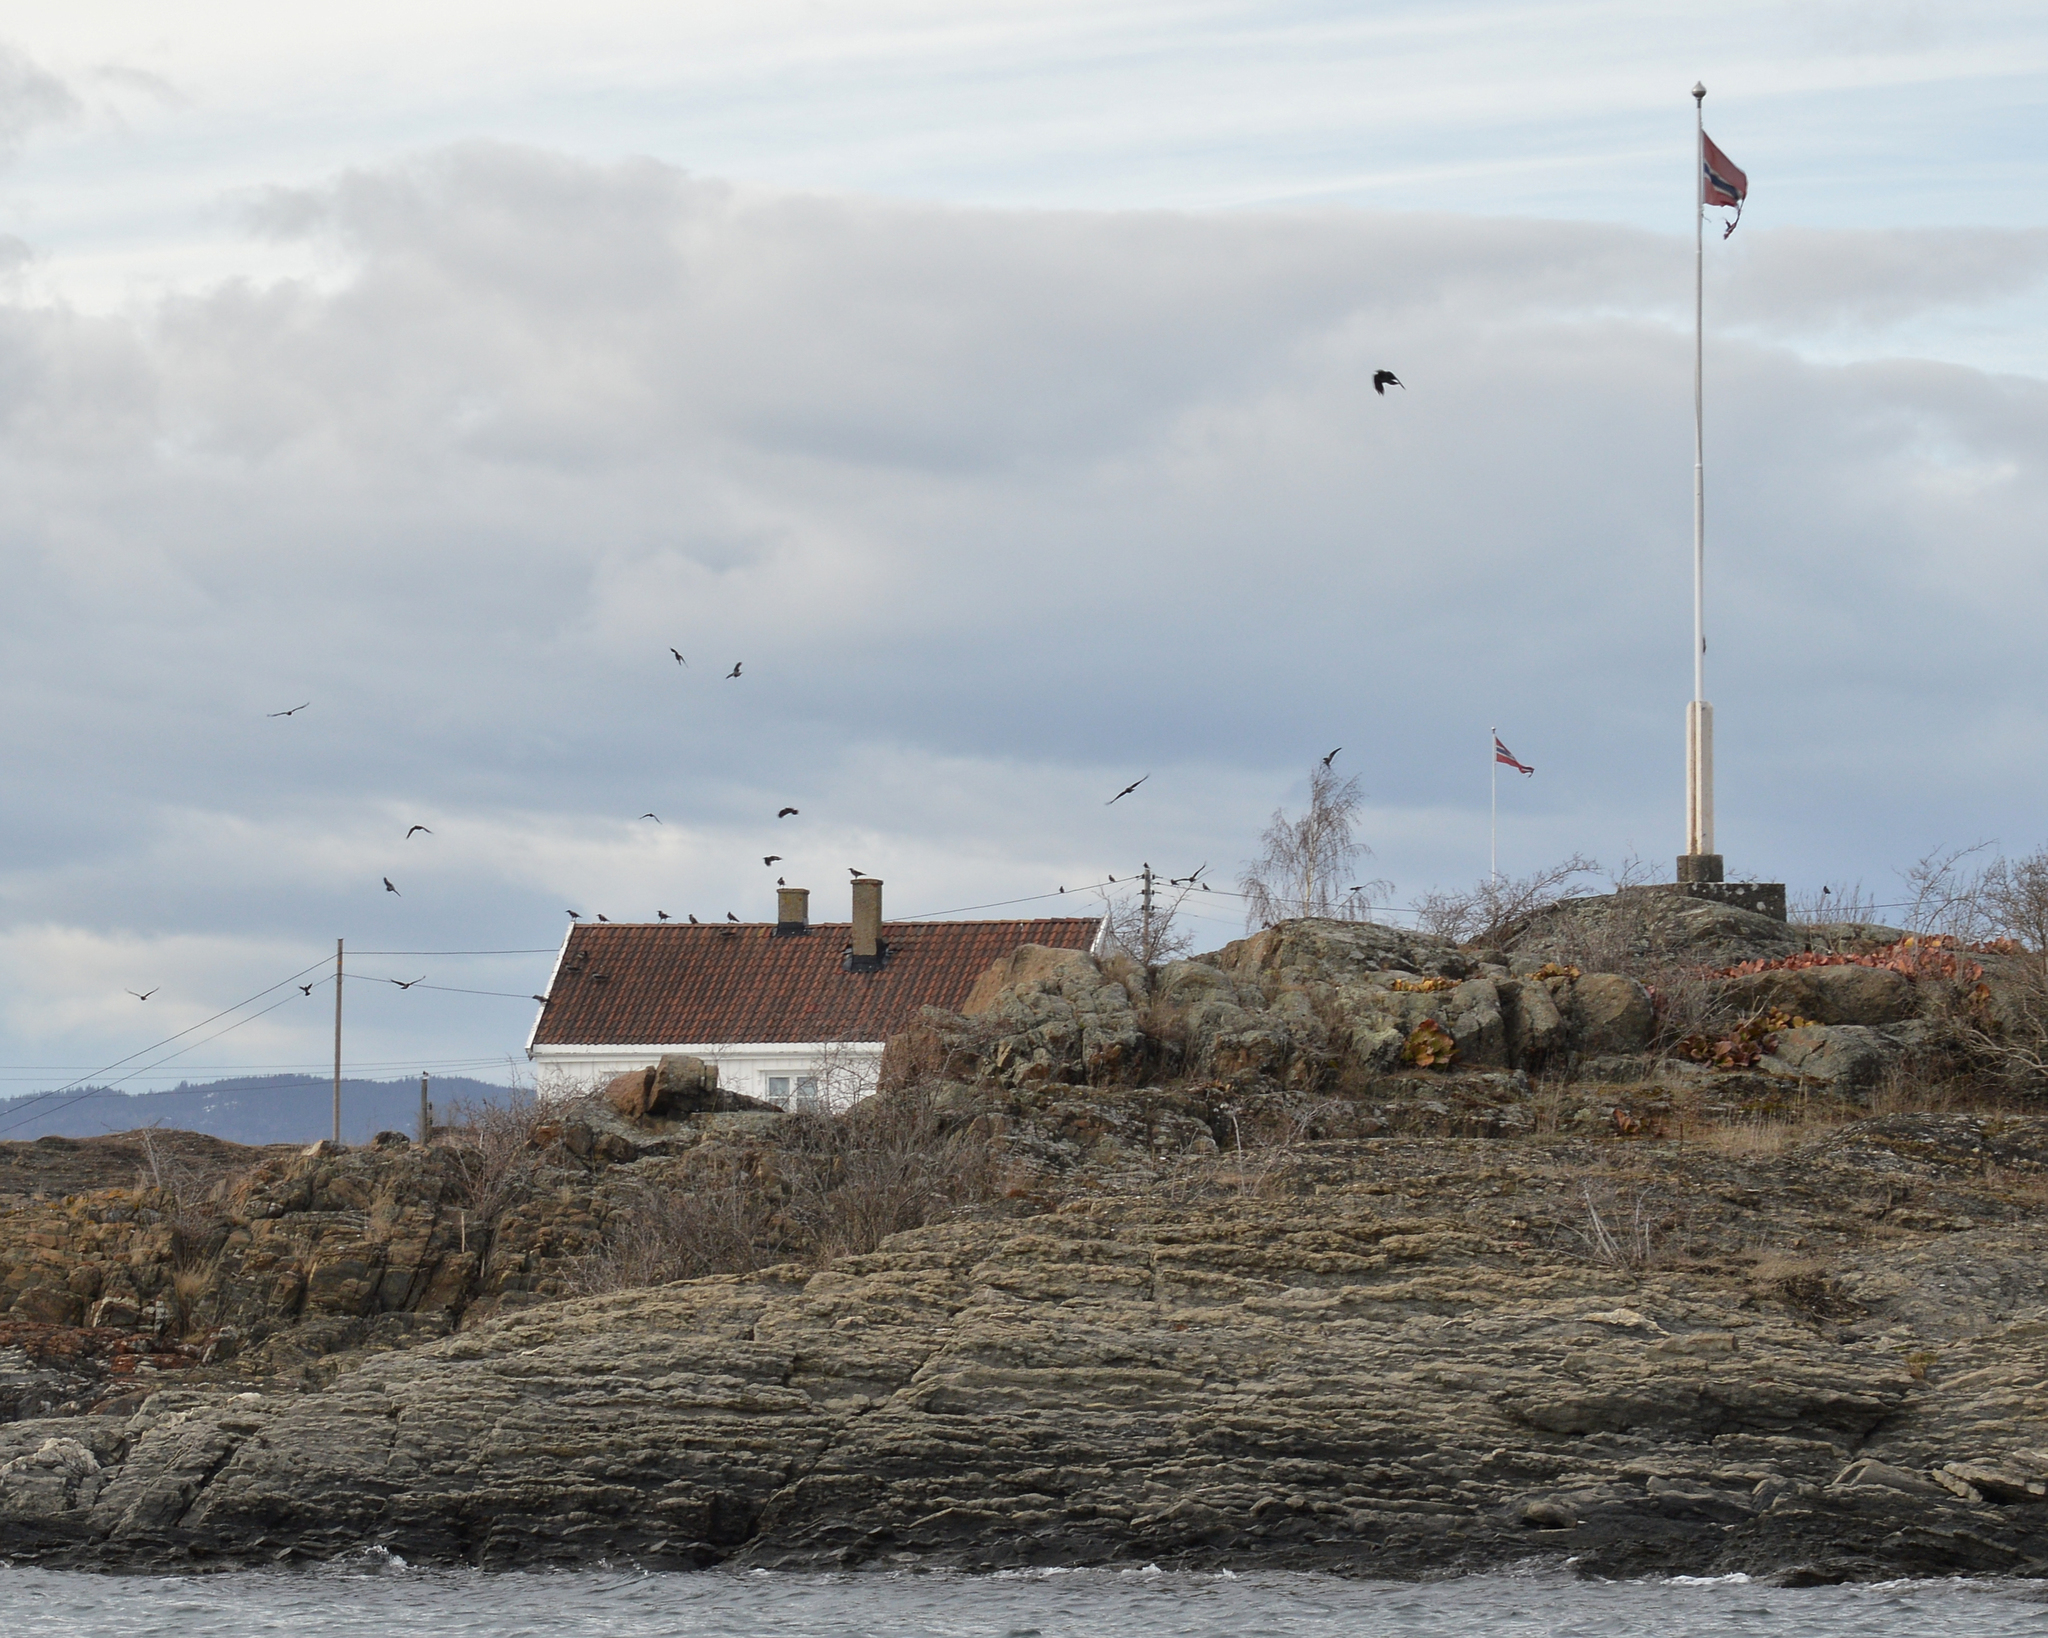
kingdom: Animalia
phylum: Chordata
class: Aves
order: Passeriformes
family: Corvidae
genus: Corvus
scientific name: Corvus cornix
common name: Hooded crow
